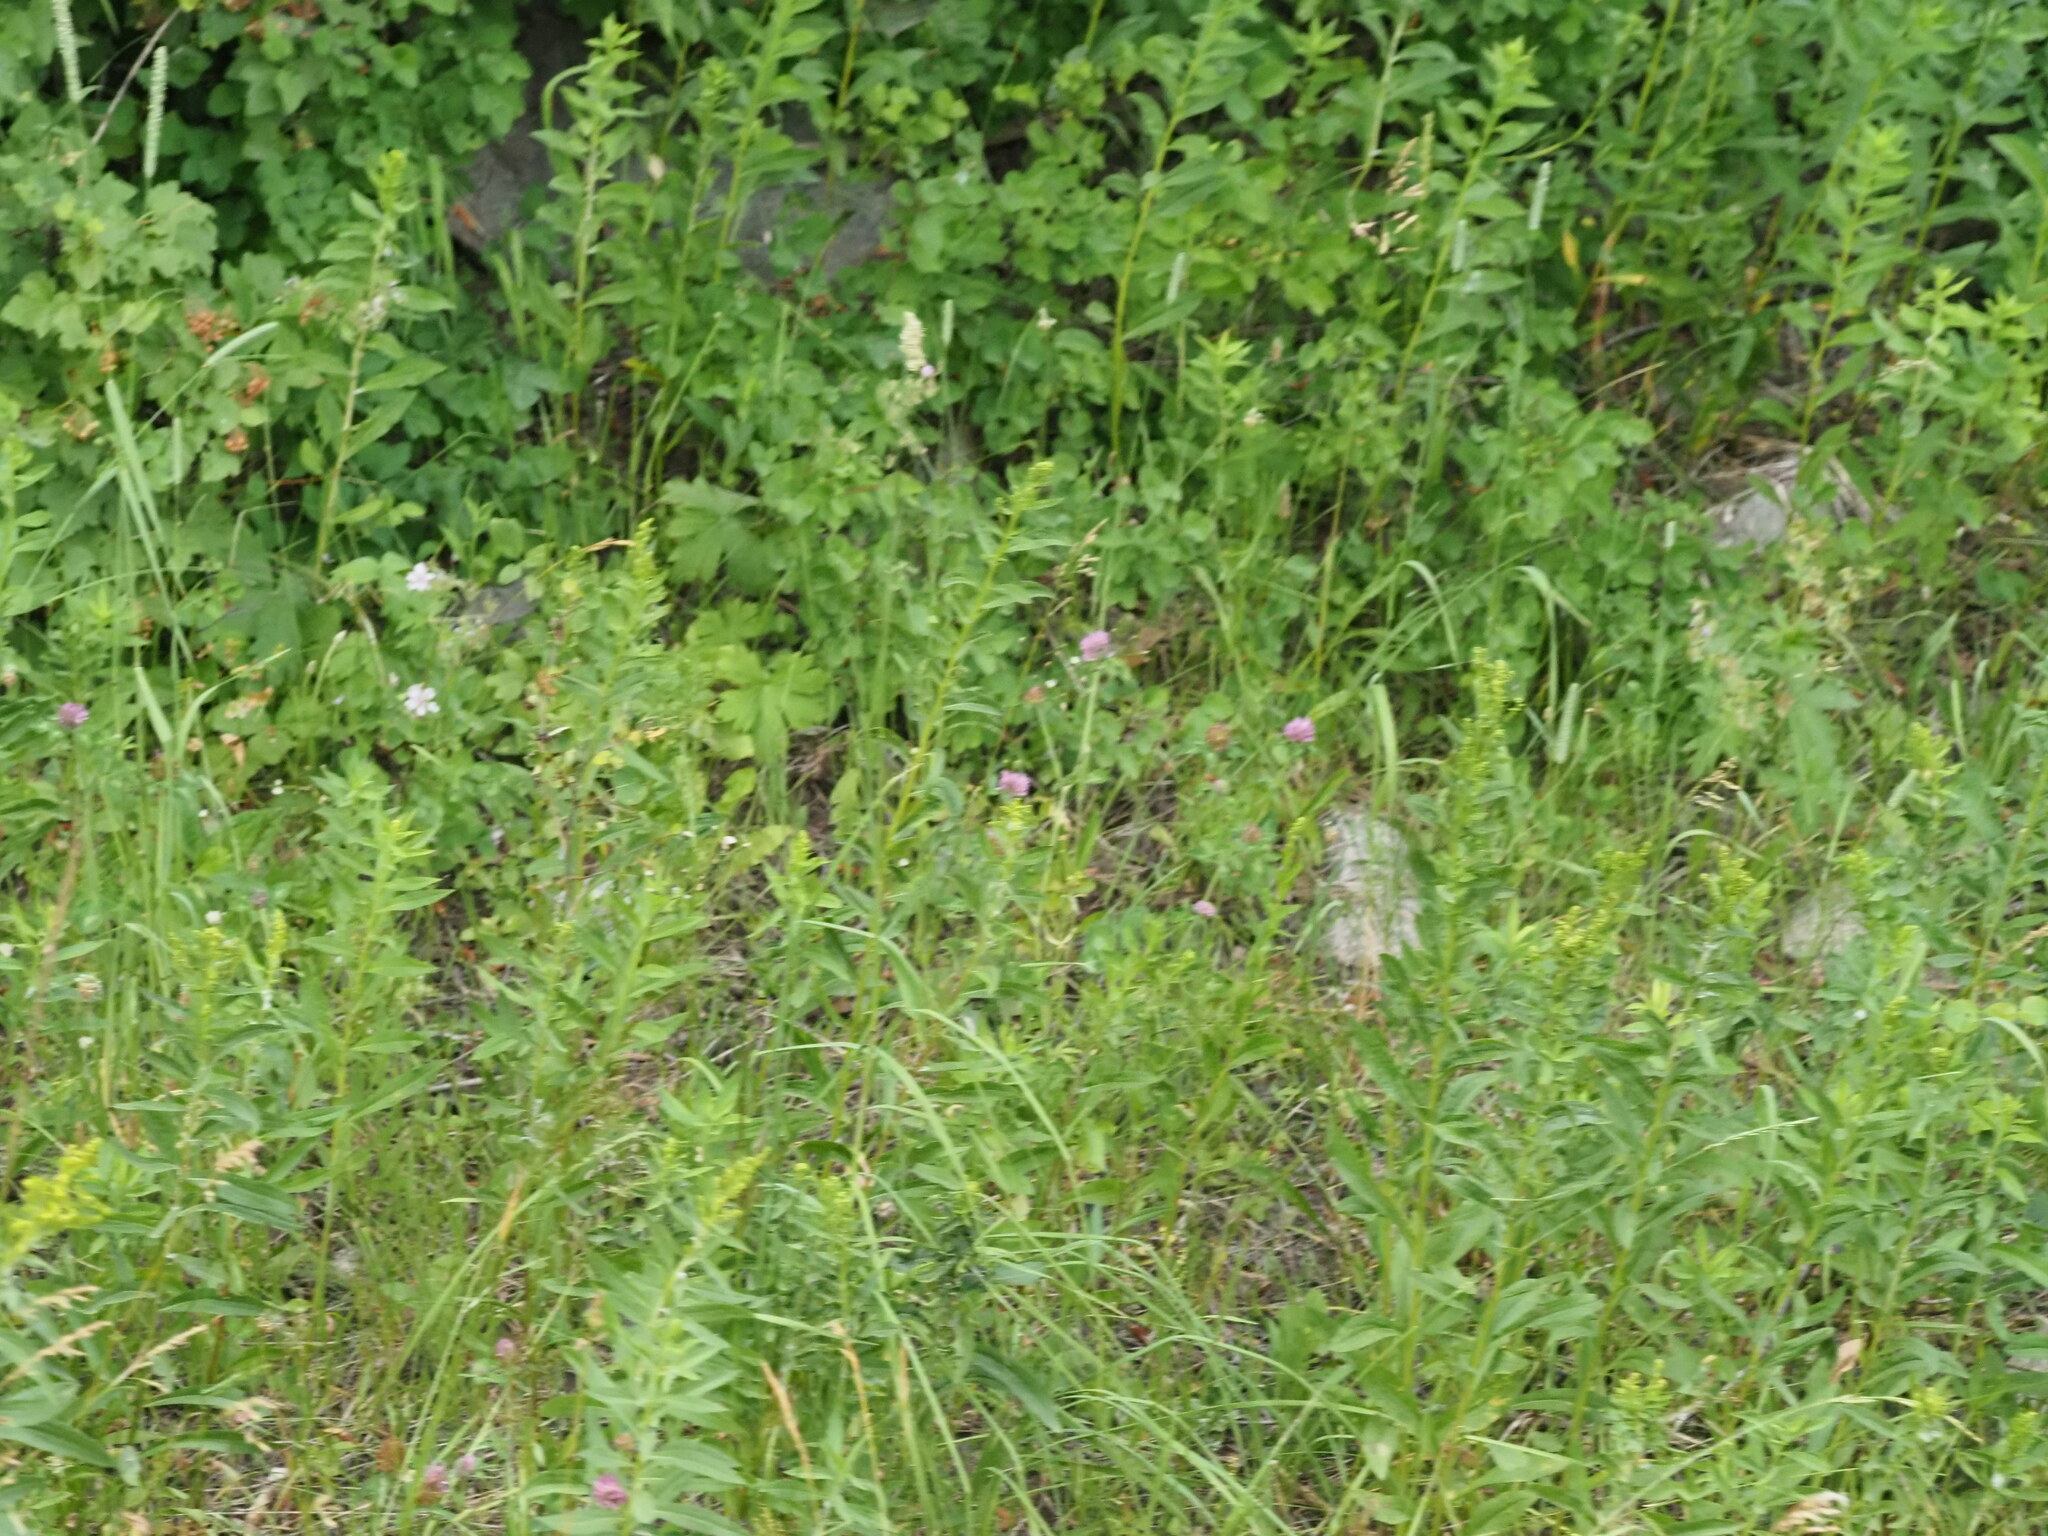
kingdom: Plantae
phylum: Tracheophyta
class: Magnoliopsida
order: Fabales
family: Fabaceae
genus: Trifolium
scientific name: Trifolium pratense
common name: Red clover
